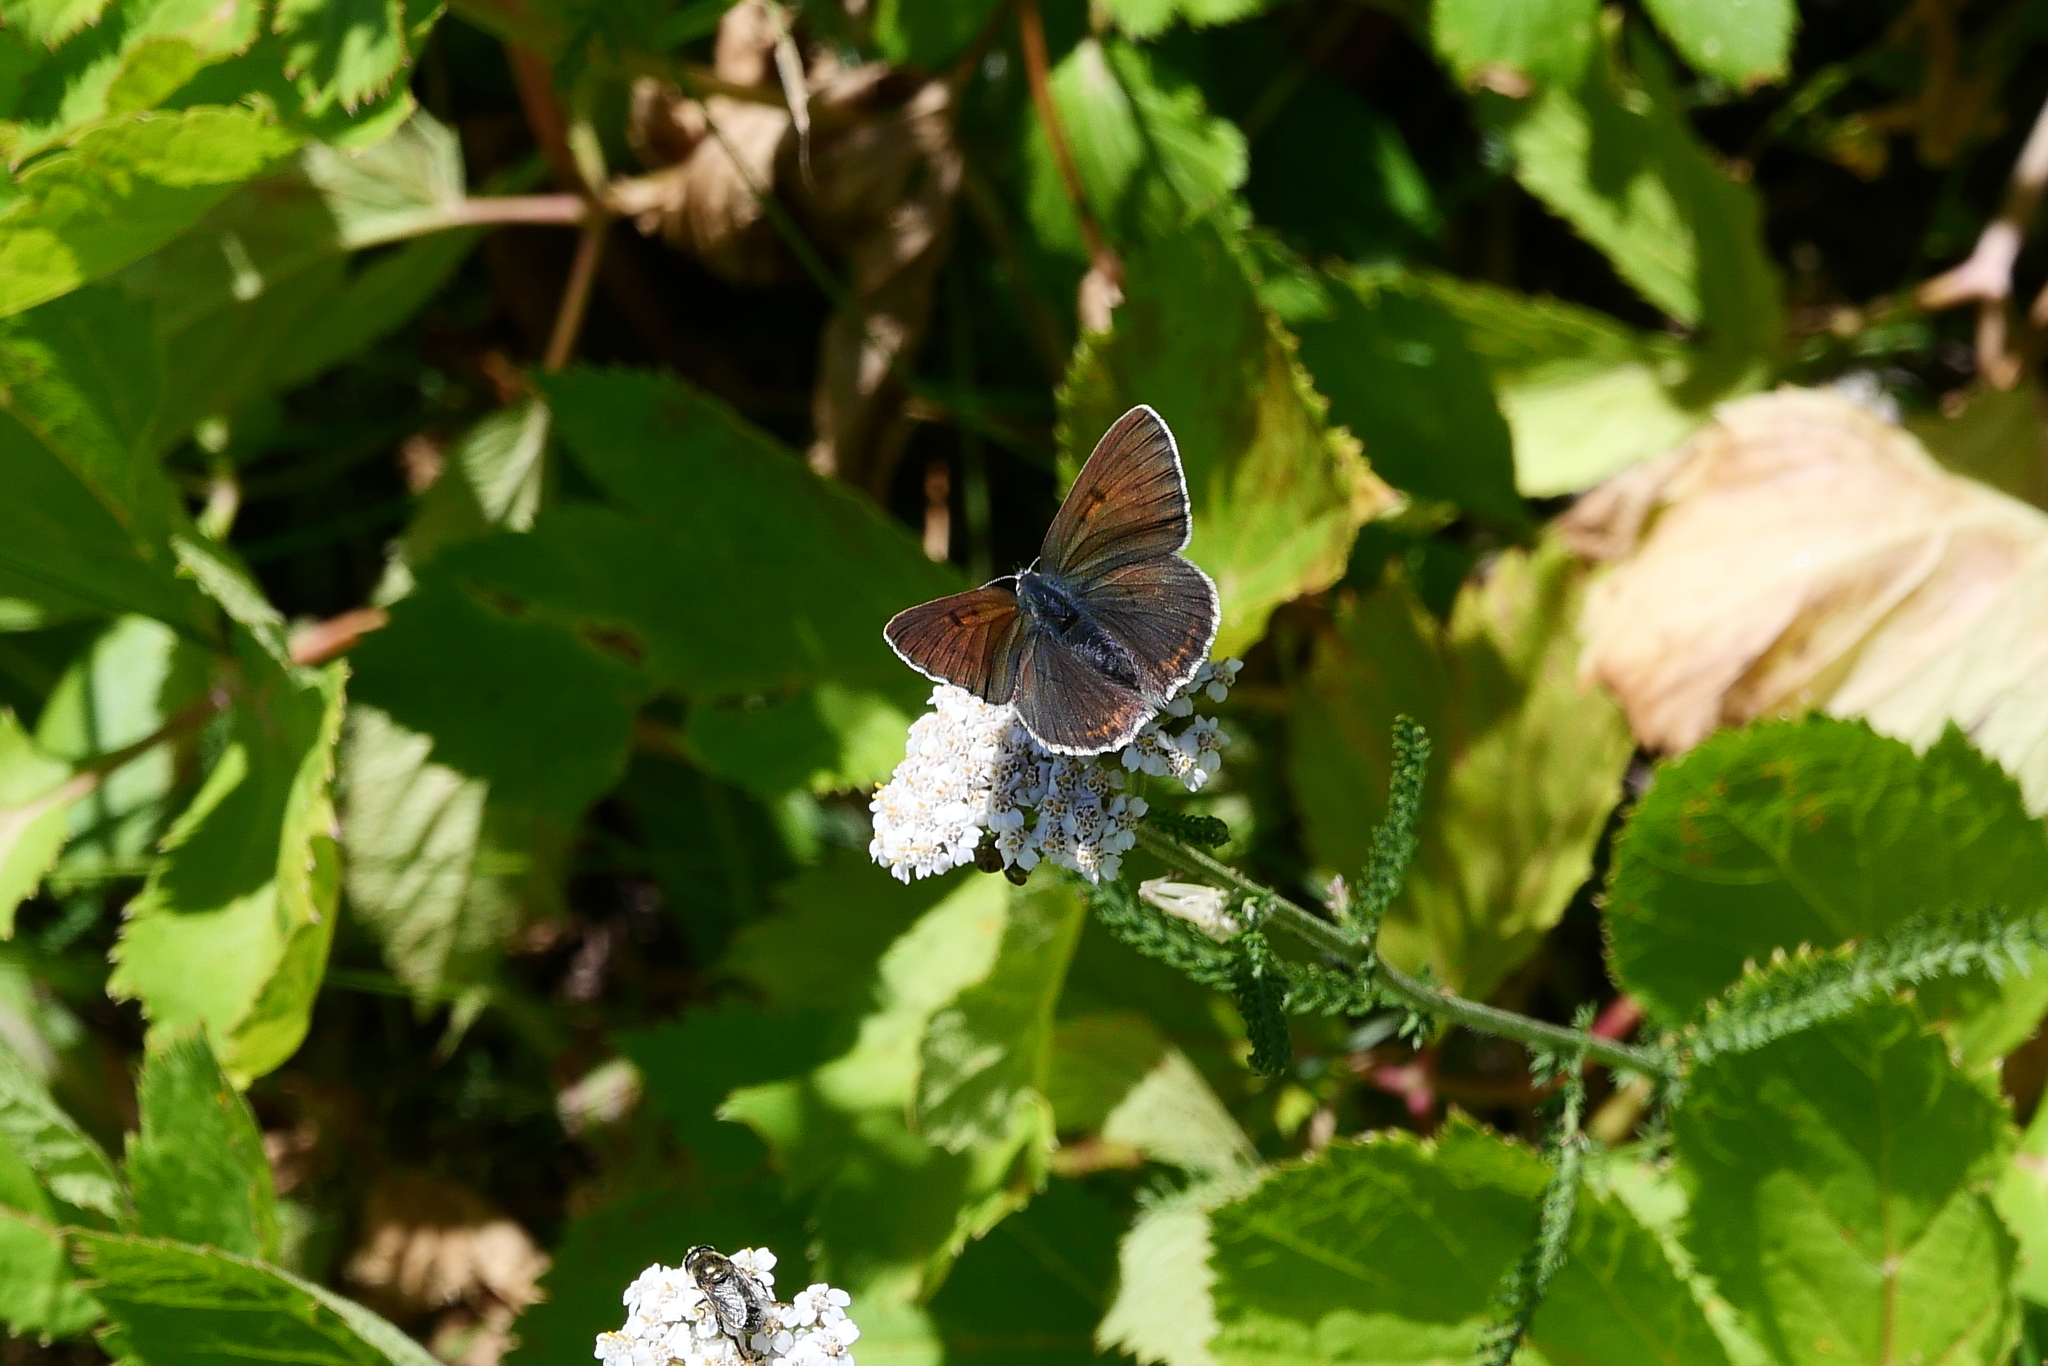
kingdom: Animalia
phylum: Arthropoda
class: Insecta
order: Lepidoptera
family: Lycaenidae
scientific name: Lycaenidae
